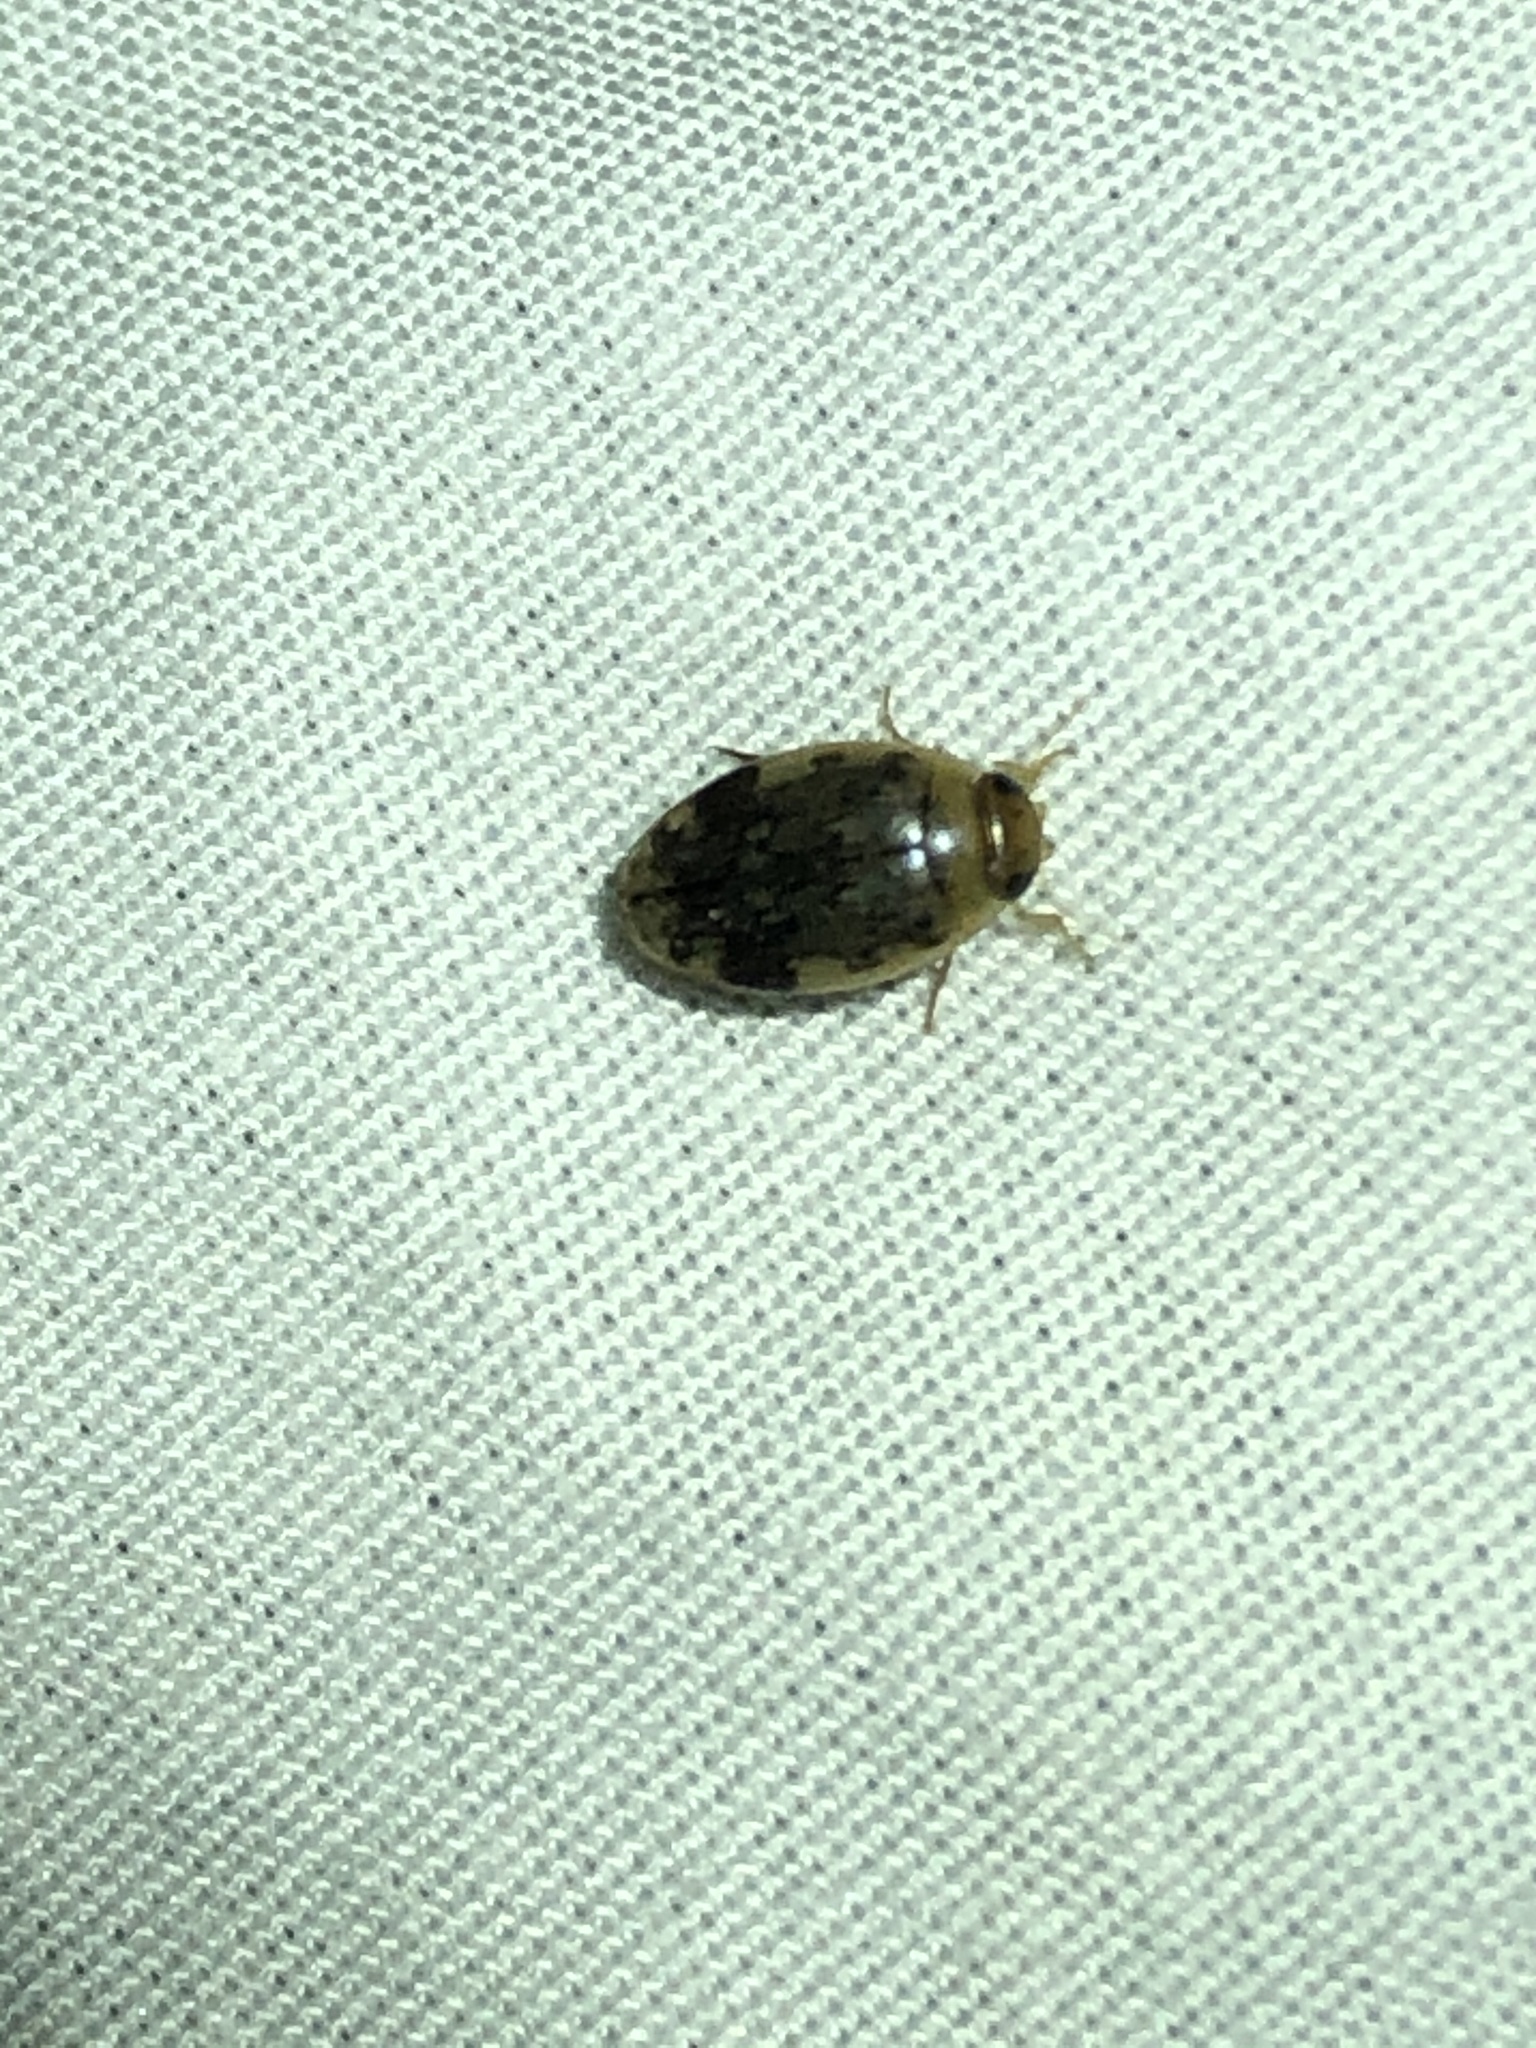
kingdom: Animalia
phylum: Arthropoda
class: Insecta
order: Coleoptera
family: Dytiscidae
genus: Laccophilus
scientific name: Laccophilus fasciatus
